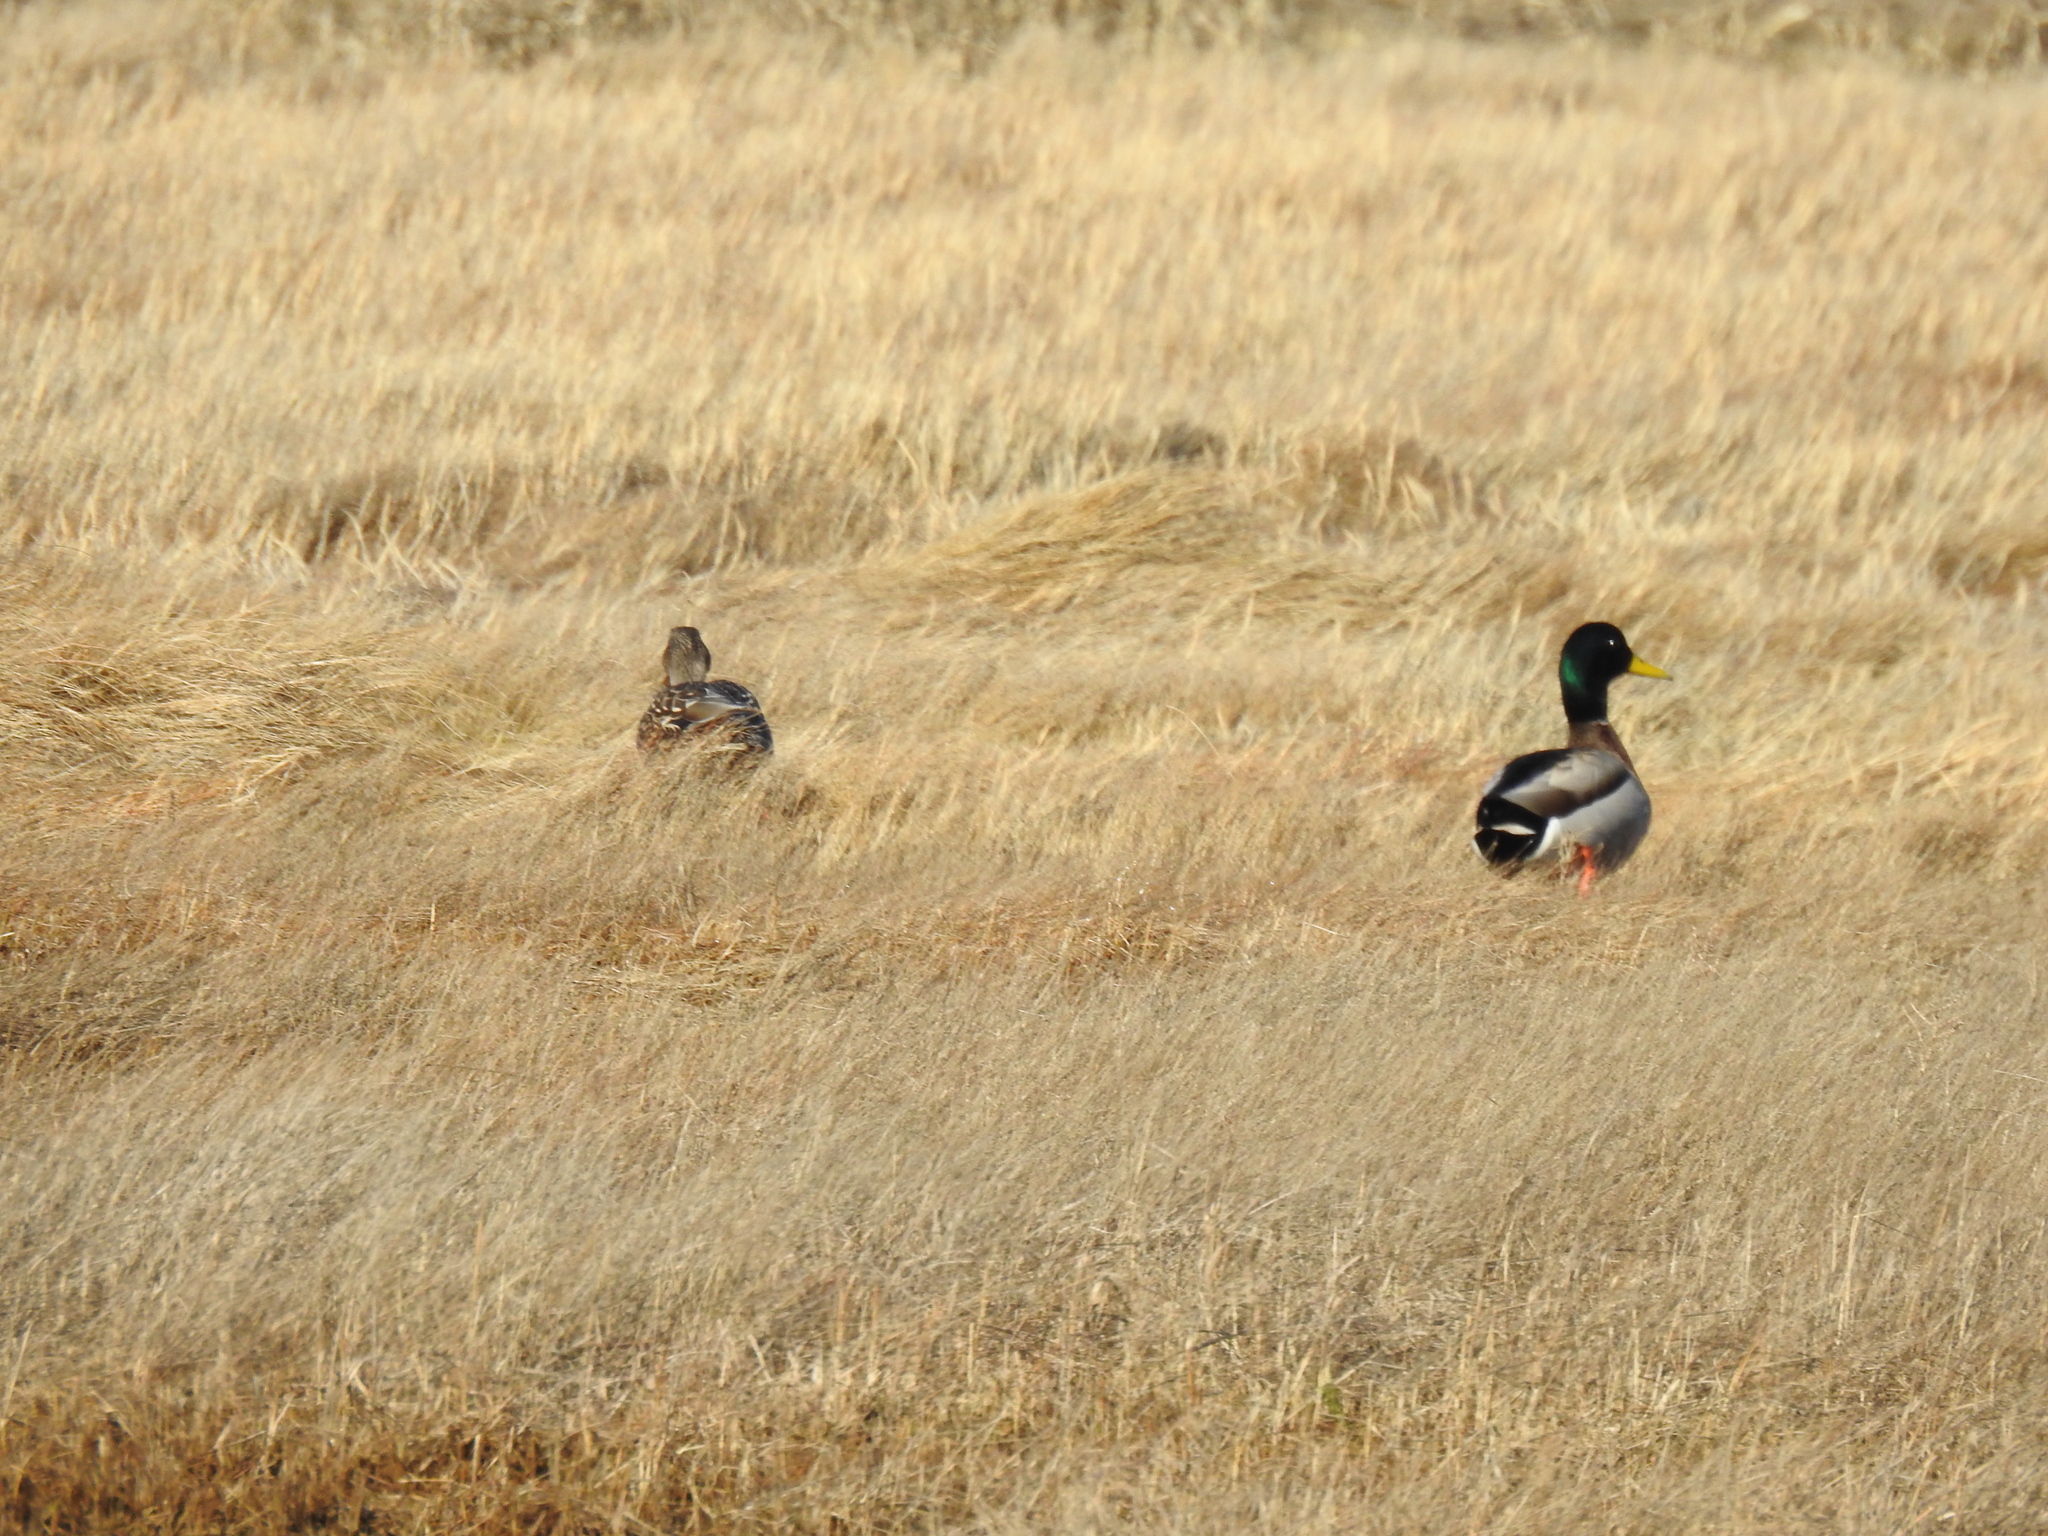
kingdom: Animalia
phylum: Chordata
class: Aves
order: Anseriformes
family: Anatidae
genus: Anas
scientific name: Anas platyrhynchos
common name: Mallard
